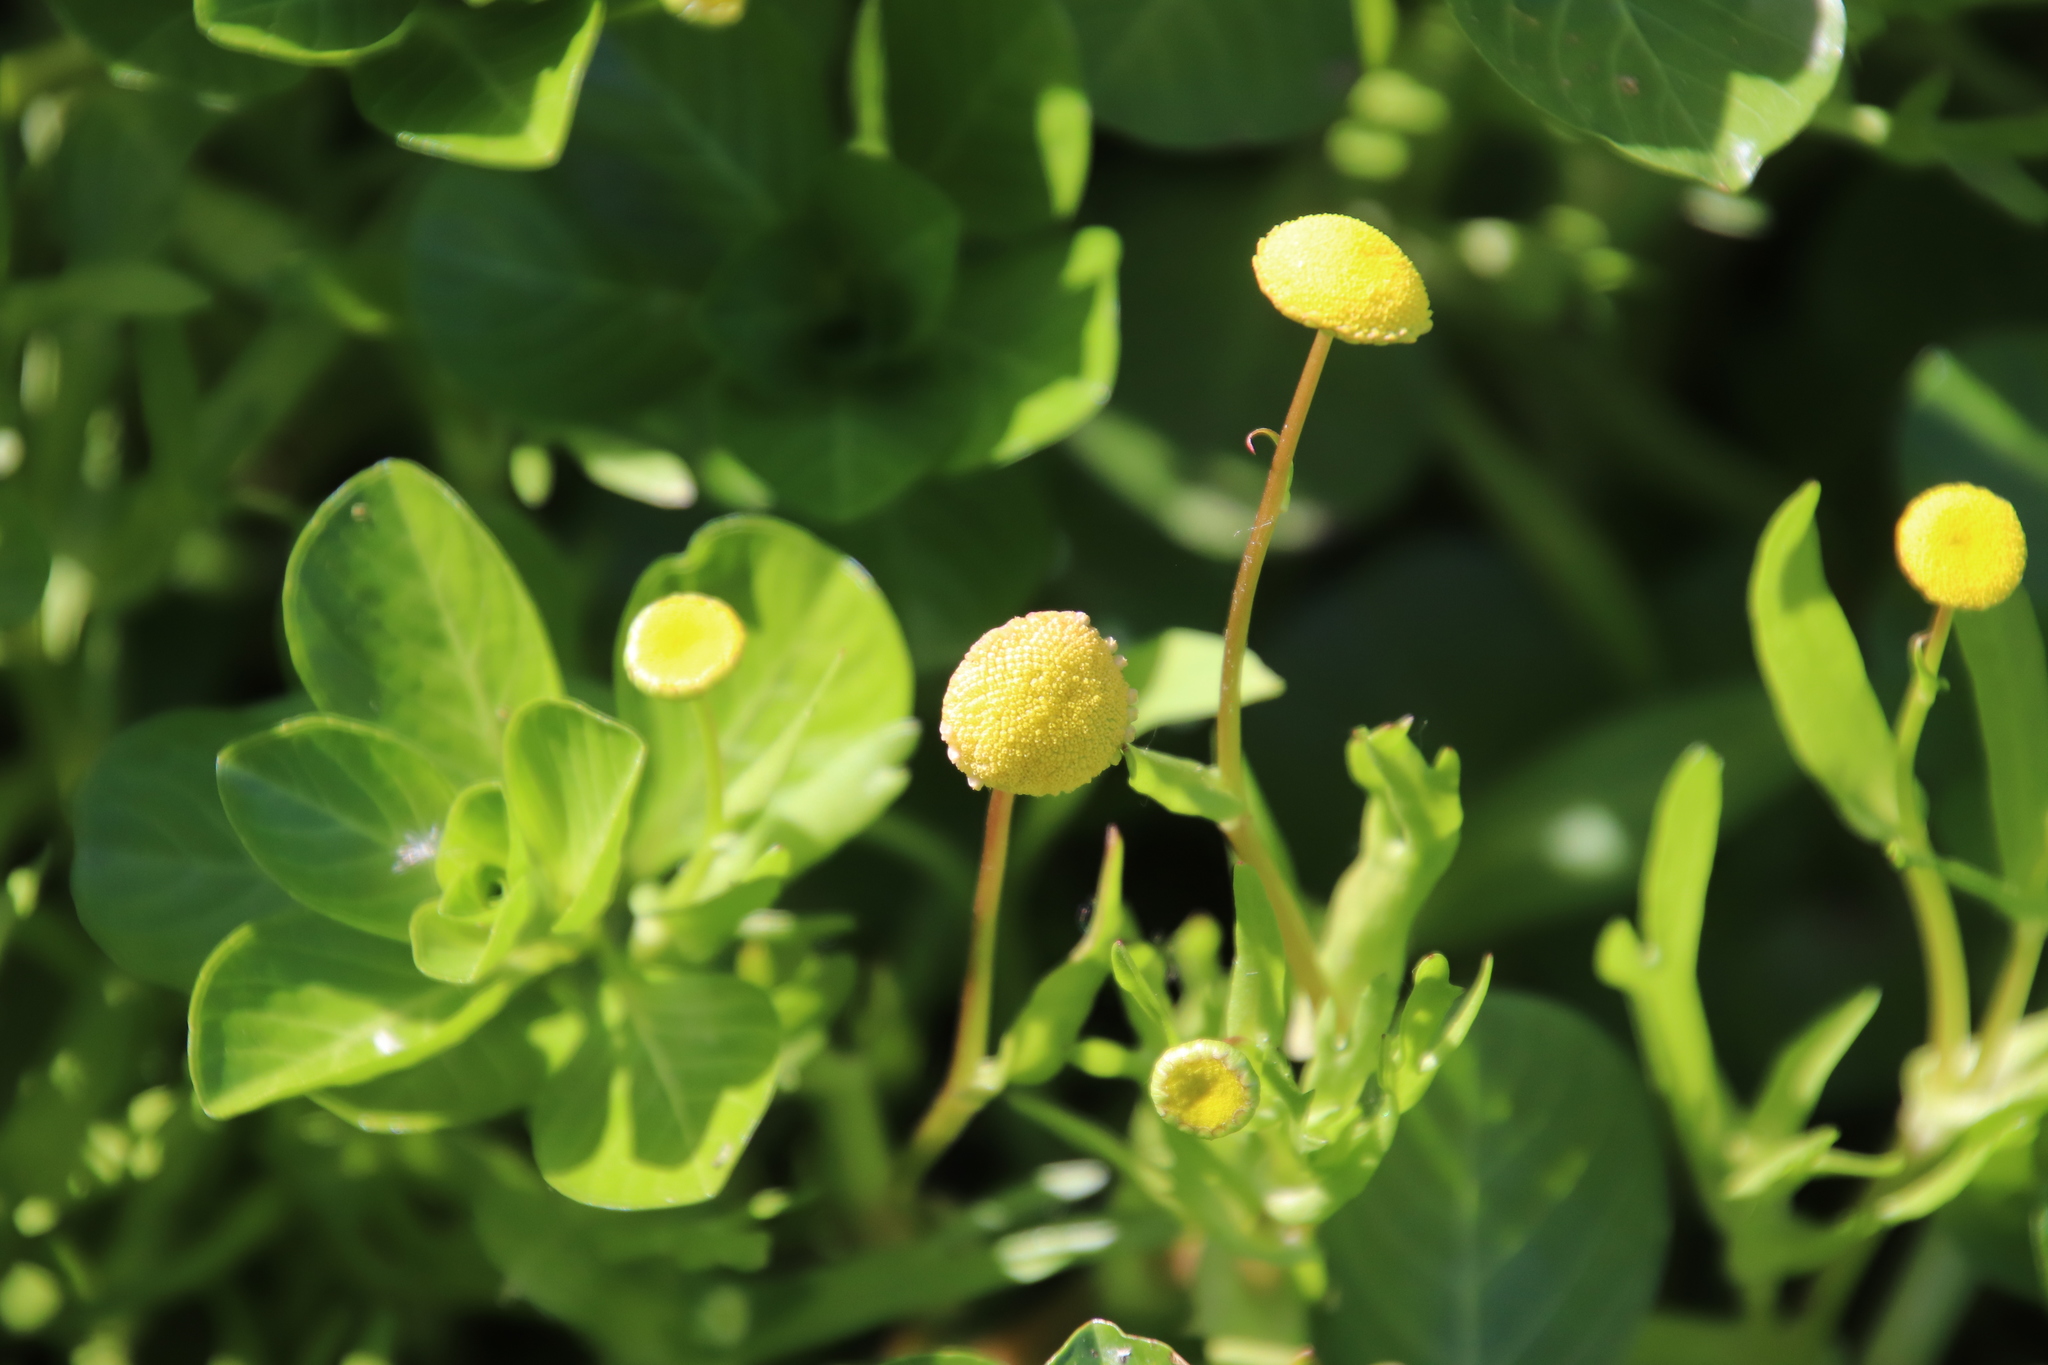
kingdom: Plantae
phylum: Tracheophyta
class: Magnoliopsida
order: Asterales
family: Asteraceae
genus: Cotula
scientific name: Cotula coronopifolia
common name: Buttonweed
